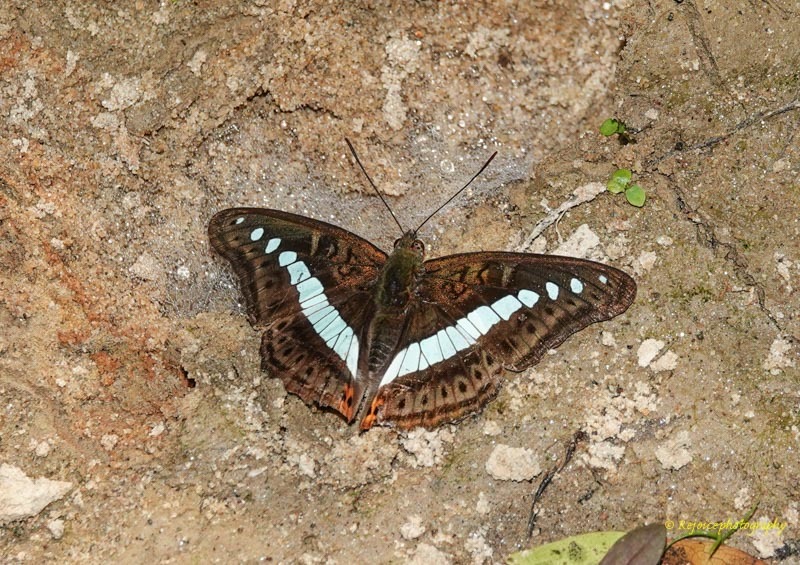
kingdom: Animalia
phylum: Arthropoda
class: Insecta
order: Lepidoptera
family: Nymphalidae
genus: Limenitis
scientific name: Limenitis Sumalia daraxa
